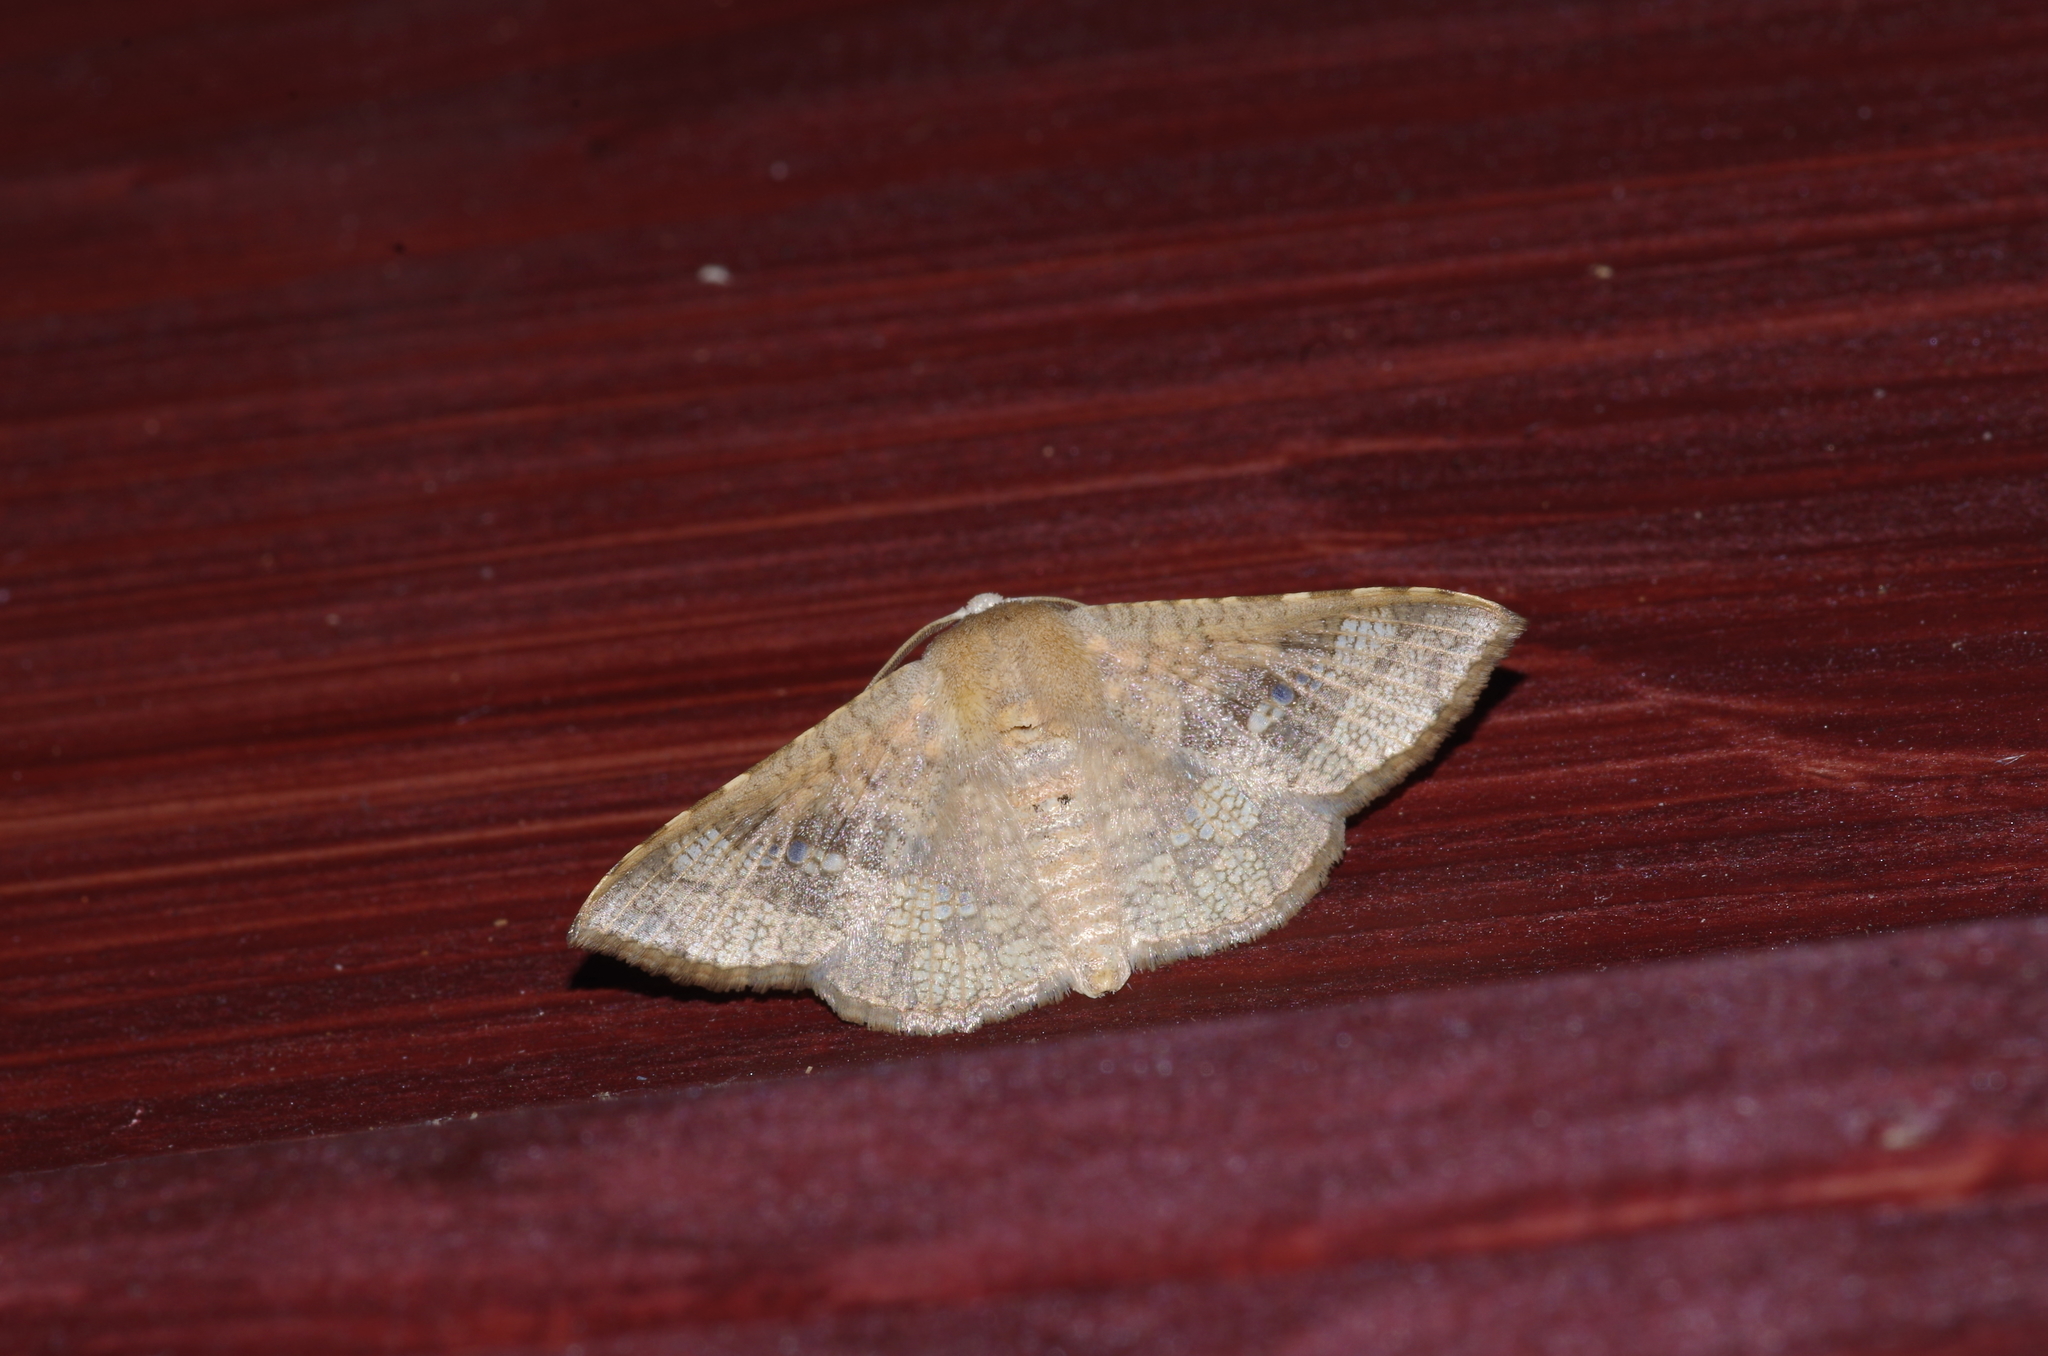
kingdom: Animalia
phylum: Arthropoda
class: Insecta
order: Lepidoptera
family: Thyrididae
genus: Canaea
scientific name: Canaea ryukyuensis
